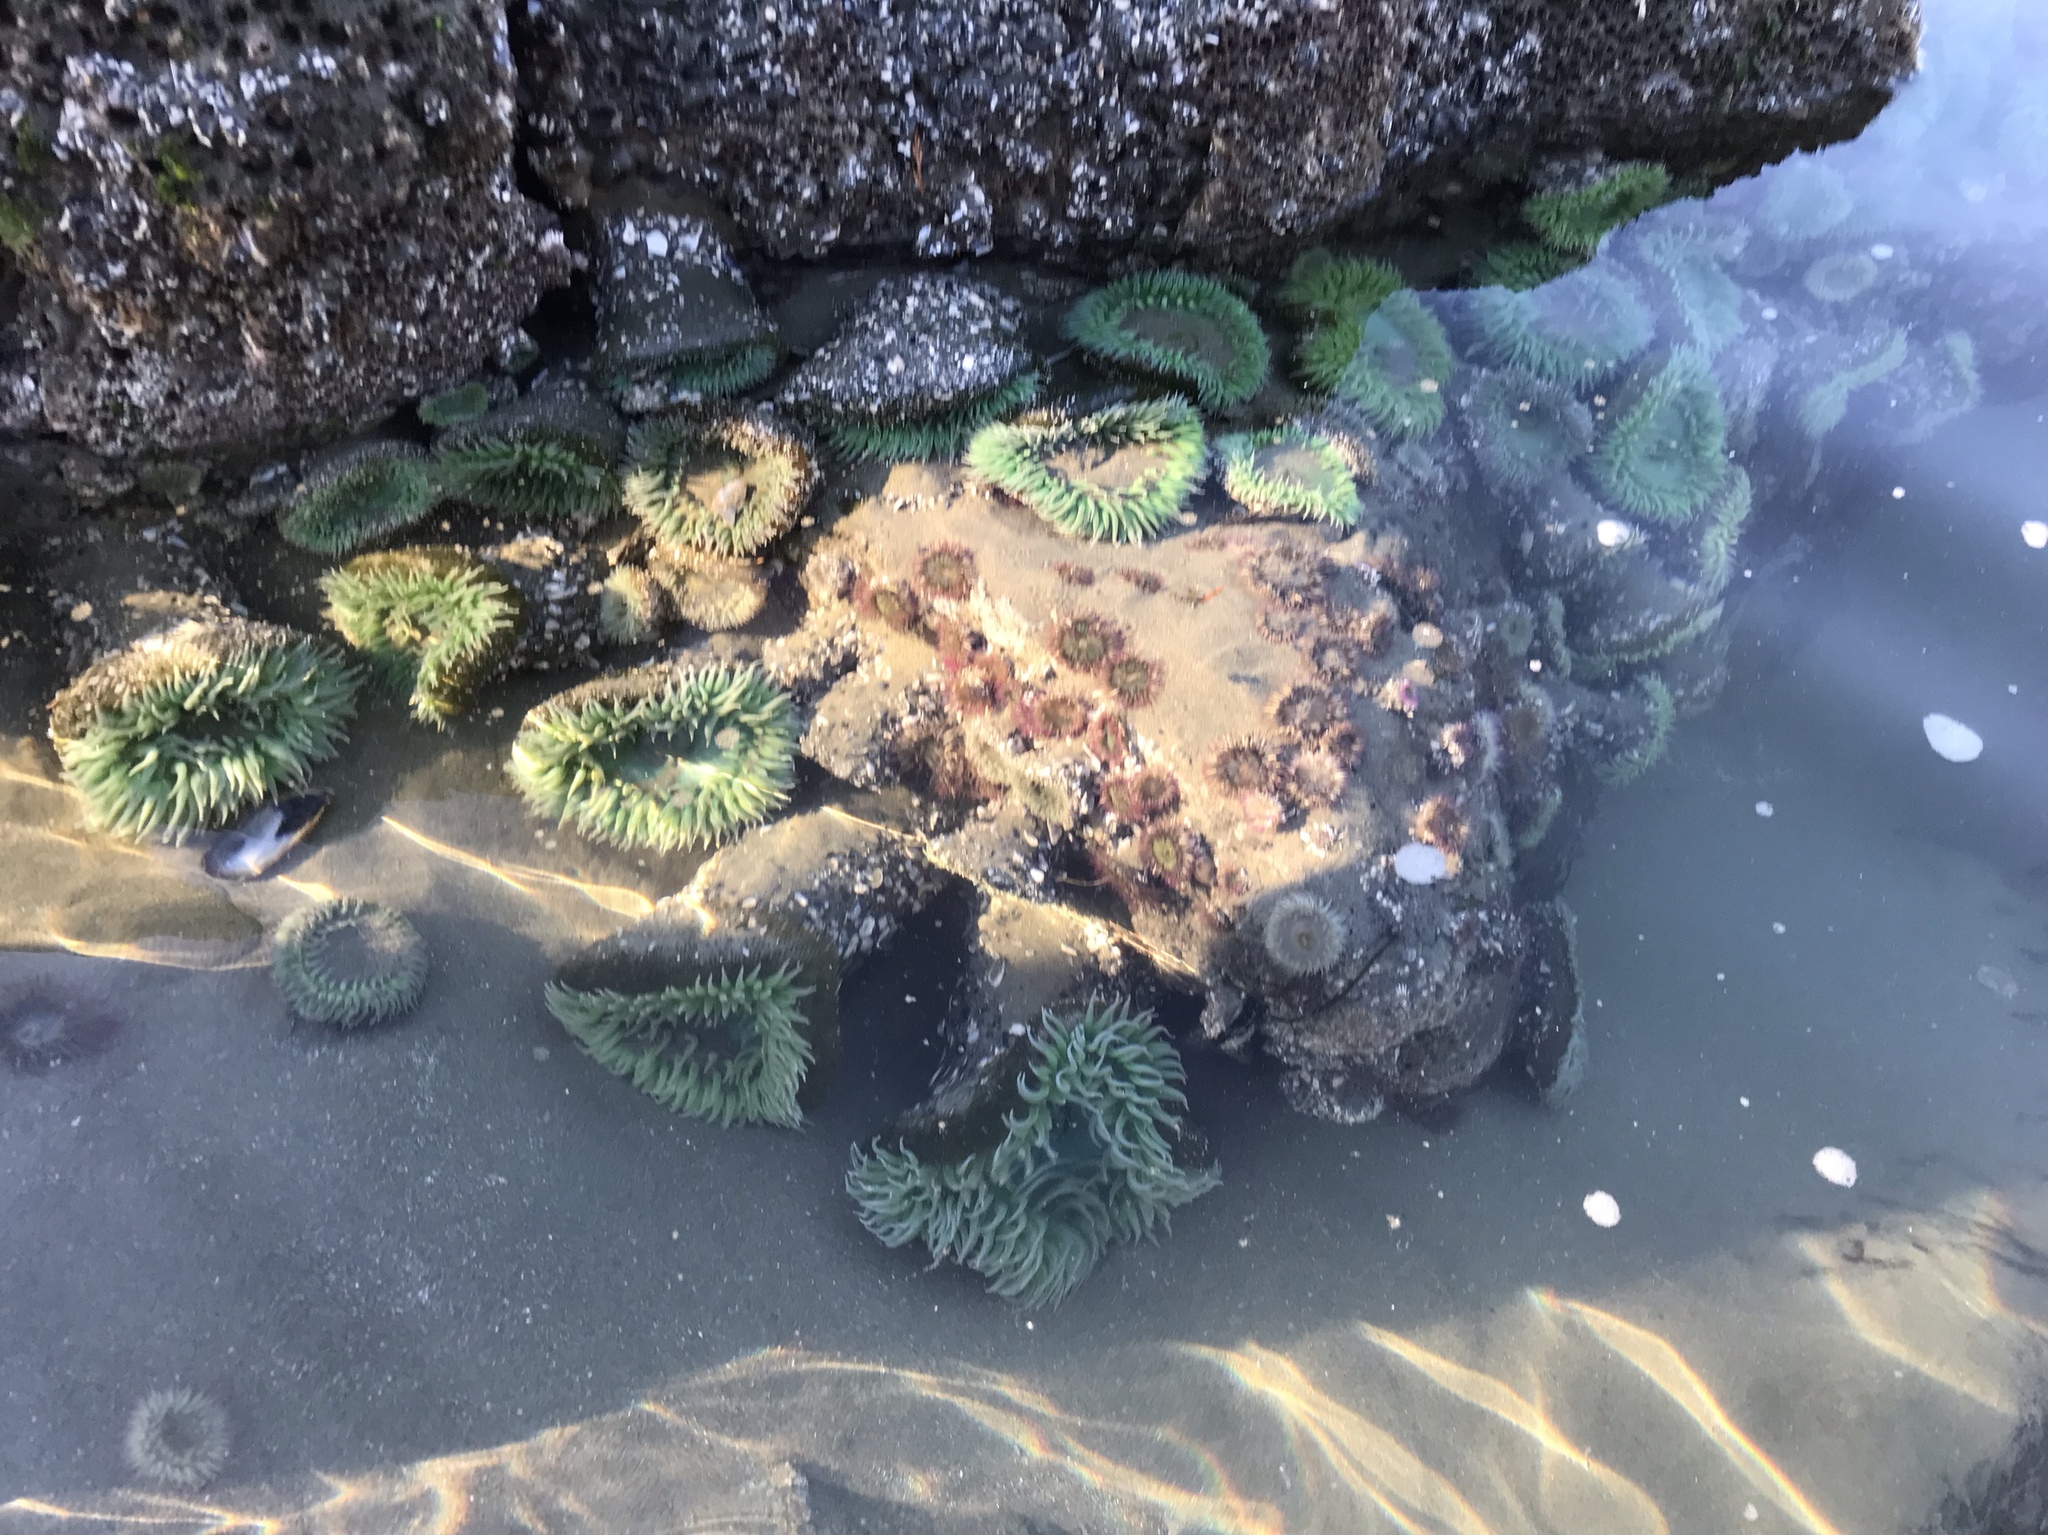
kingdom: Animalia
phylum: Cnidaria
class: Anthozoa
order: Actiniaria
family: Actiniidae
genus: Anthopleura
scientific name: Anthopleura xanthogrammica
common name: Giant green anemone
